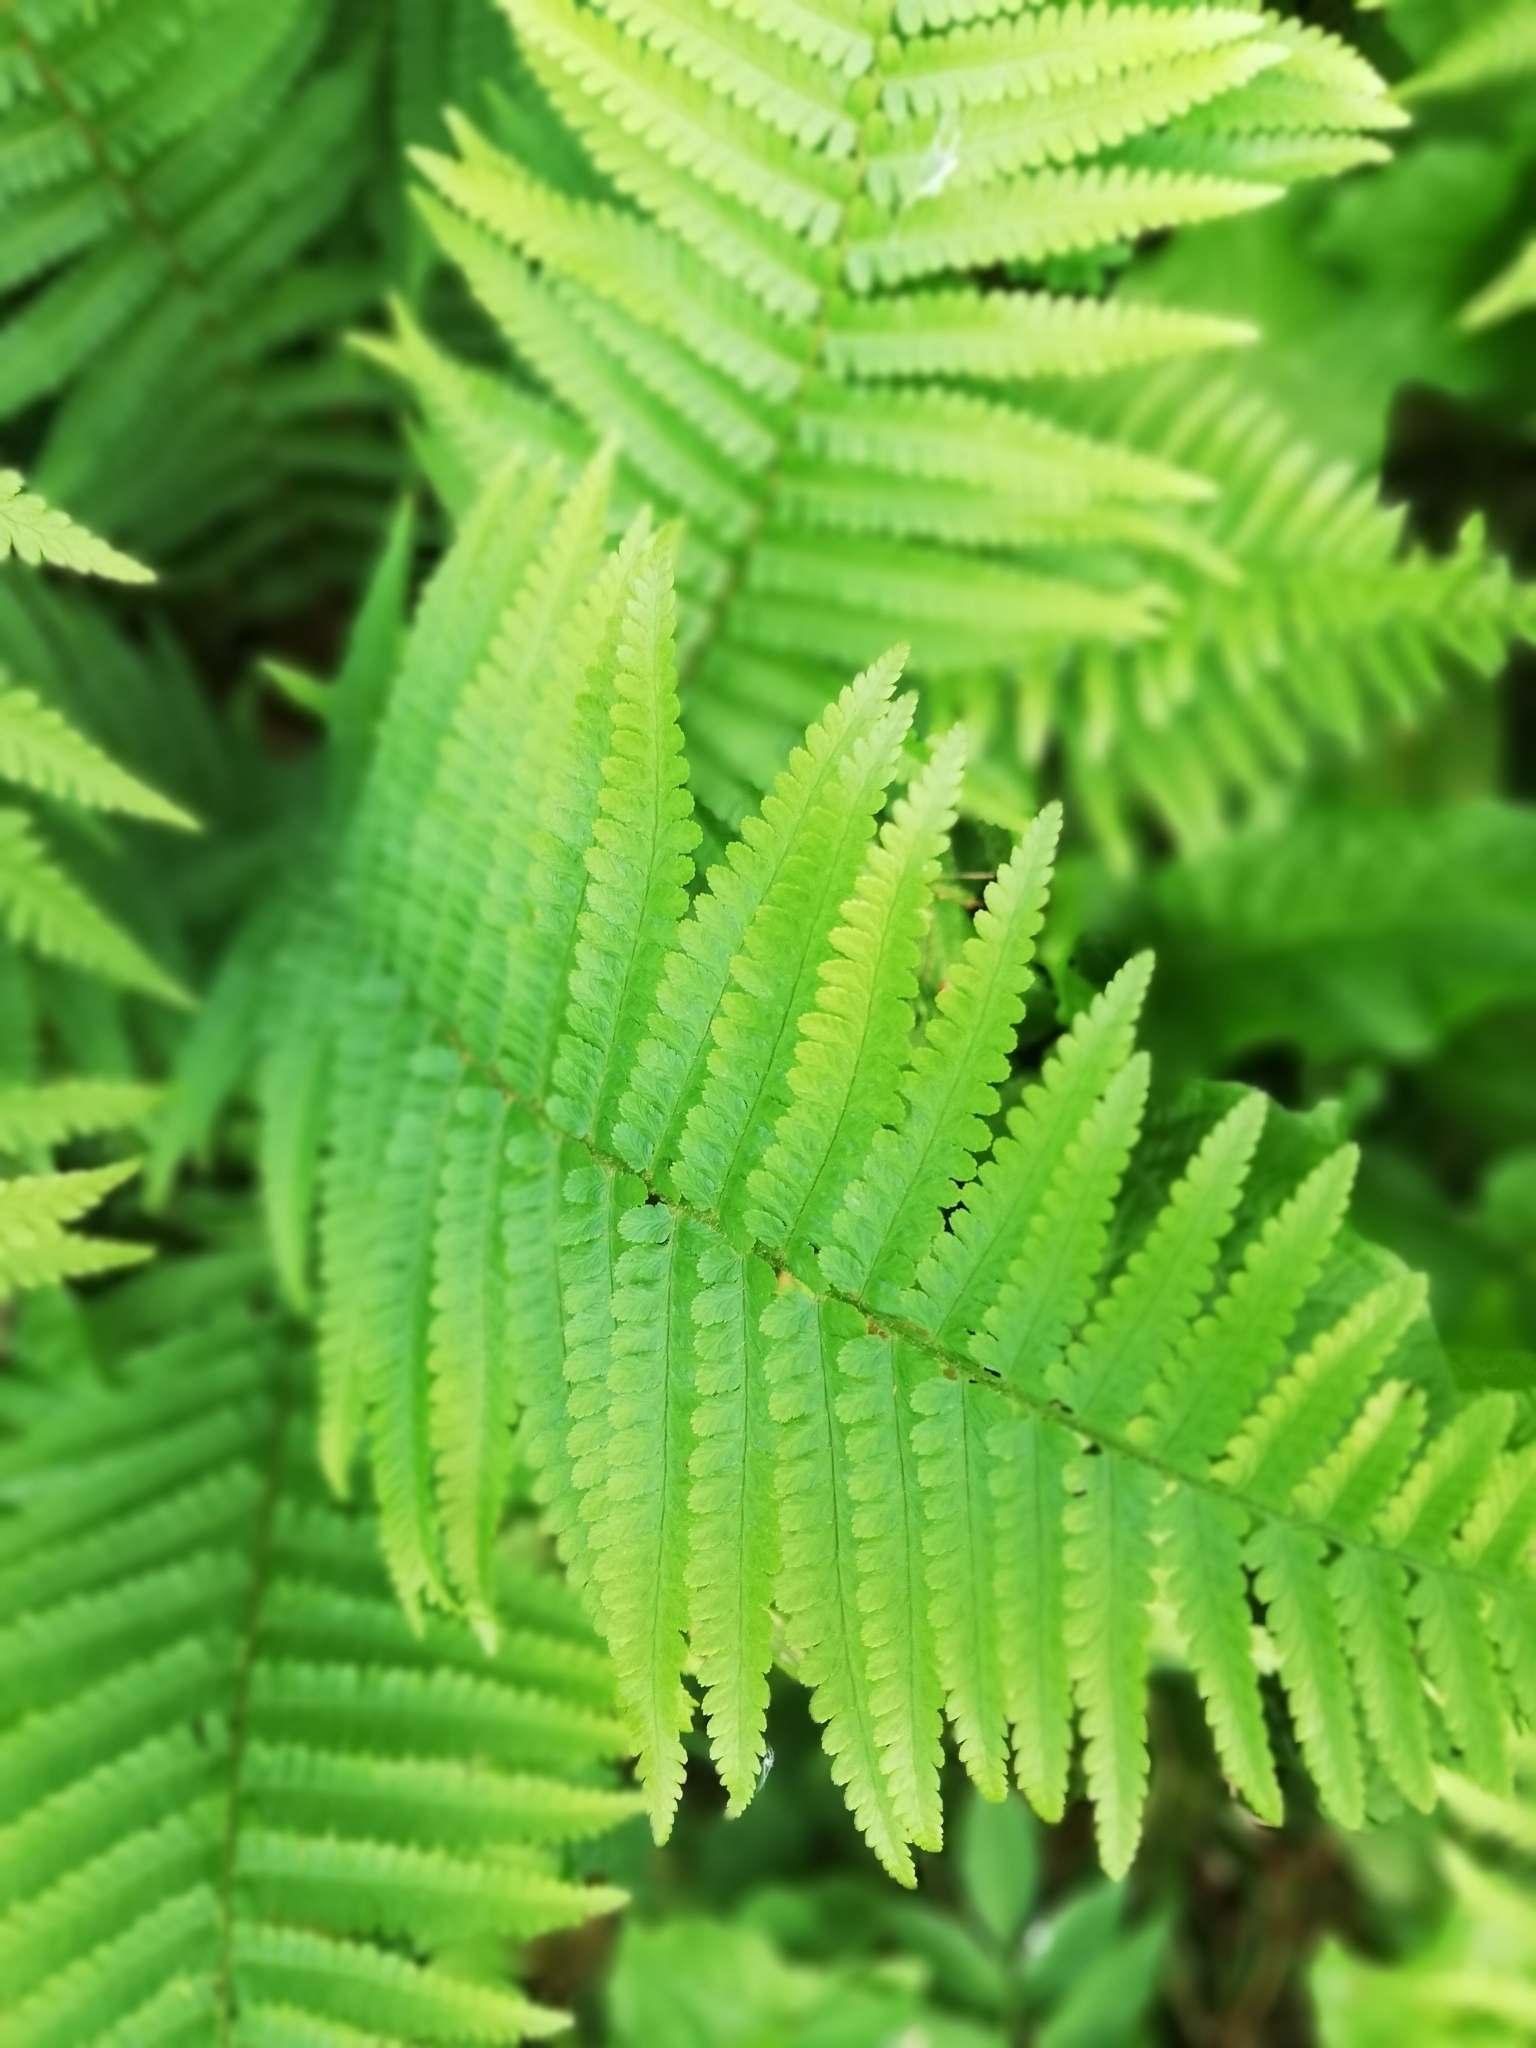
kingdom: Plantae
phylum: Tracheophyta
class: Polypodiopsida
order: Polypodiales
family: Dryopteridaceae
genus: Dryopteris
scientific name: Dryopteris filix-mas
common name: Male fern
